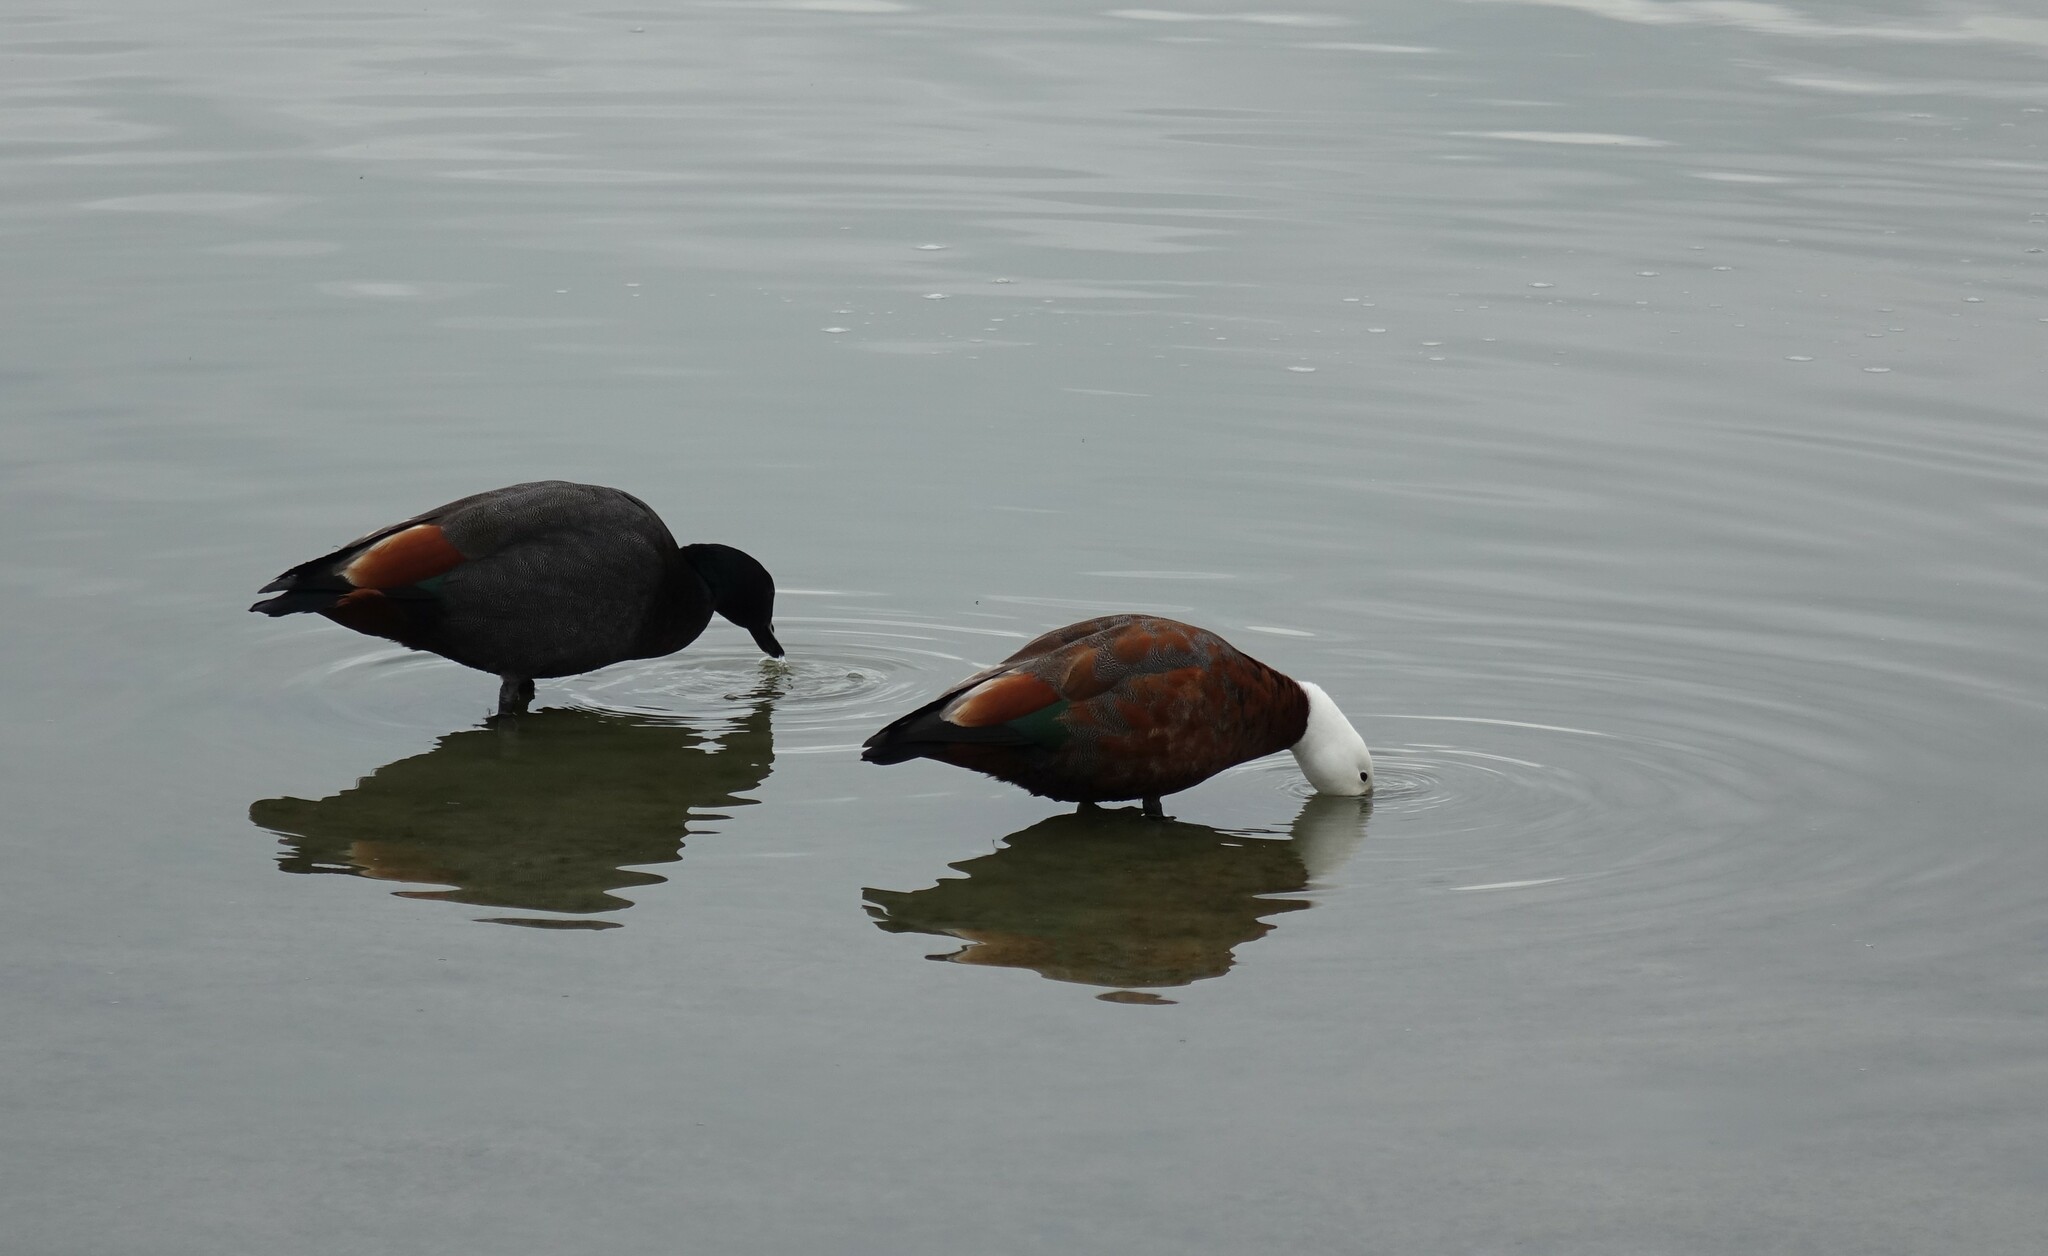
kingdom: Animalia
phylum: Chordata
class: Aves
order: Anseriformes
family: Anatidae
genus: Tadorna
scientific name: Tadorna variegata
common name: Paradise shelduck
